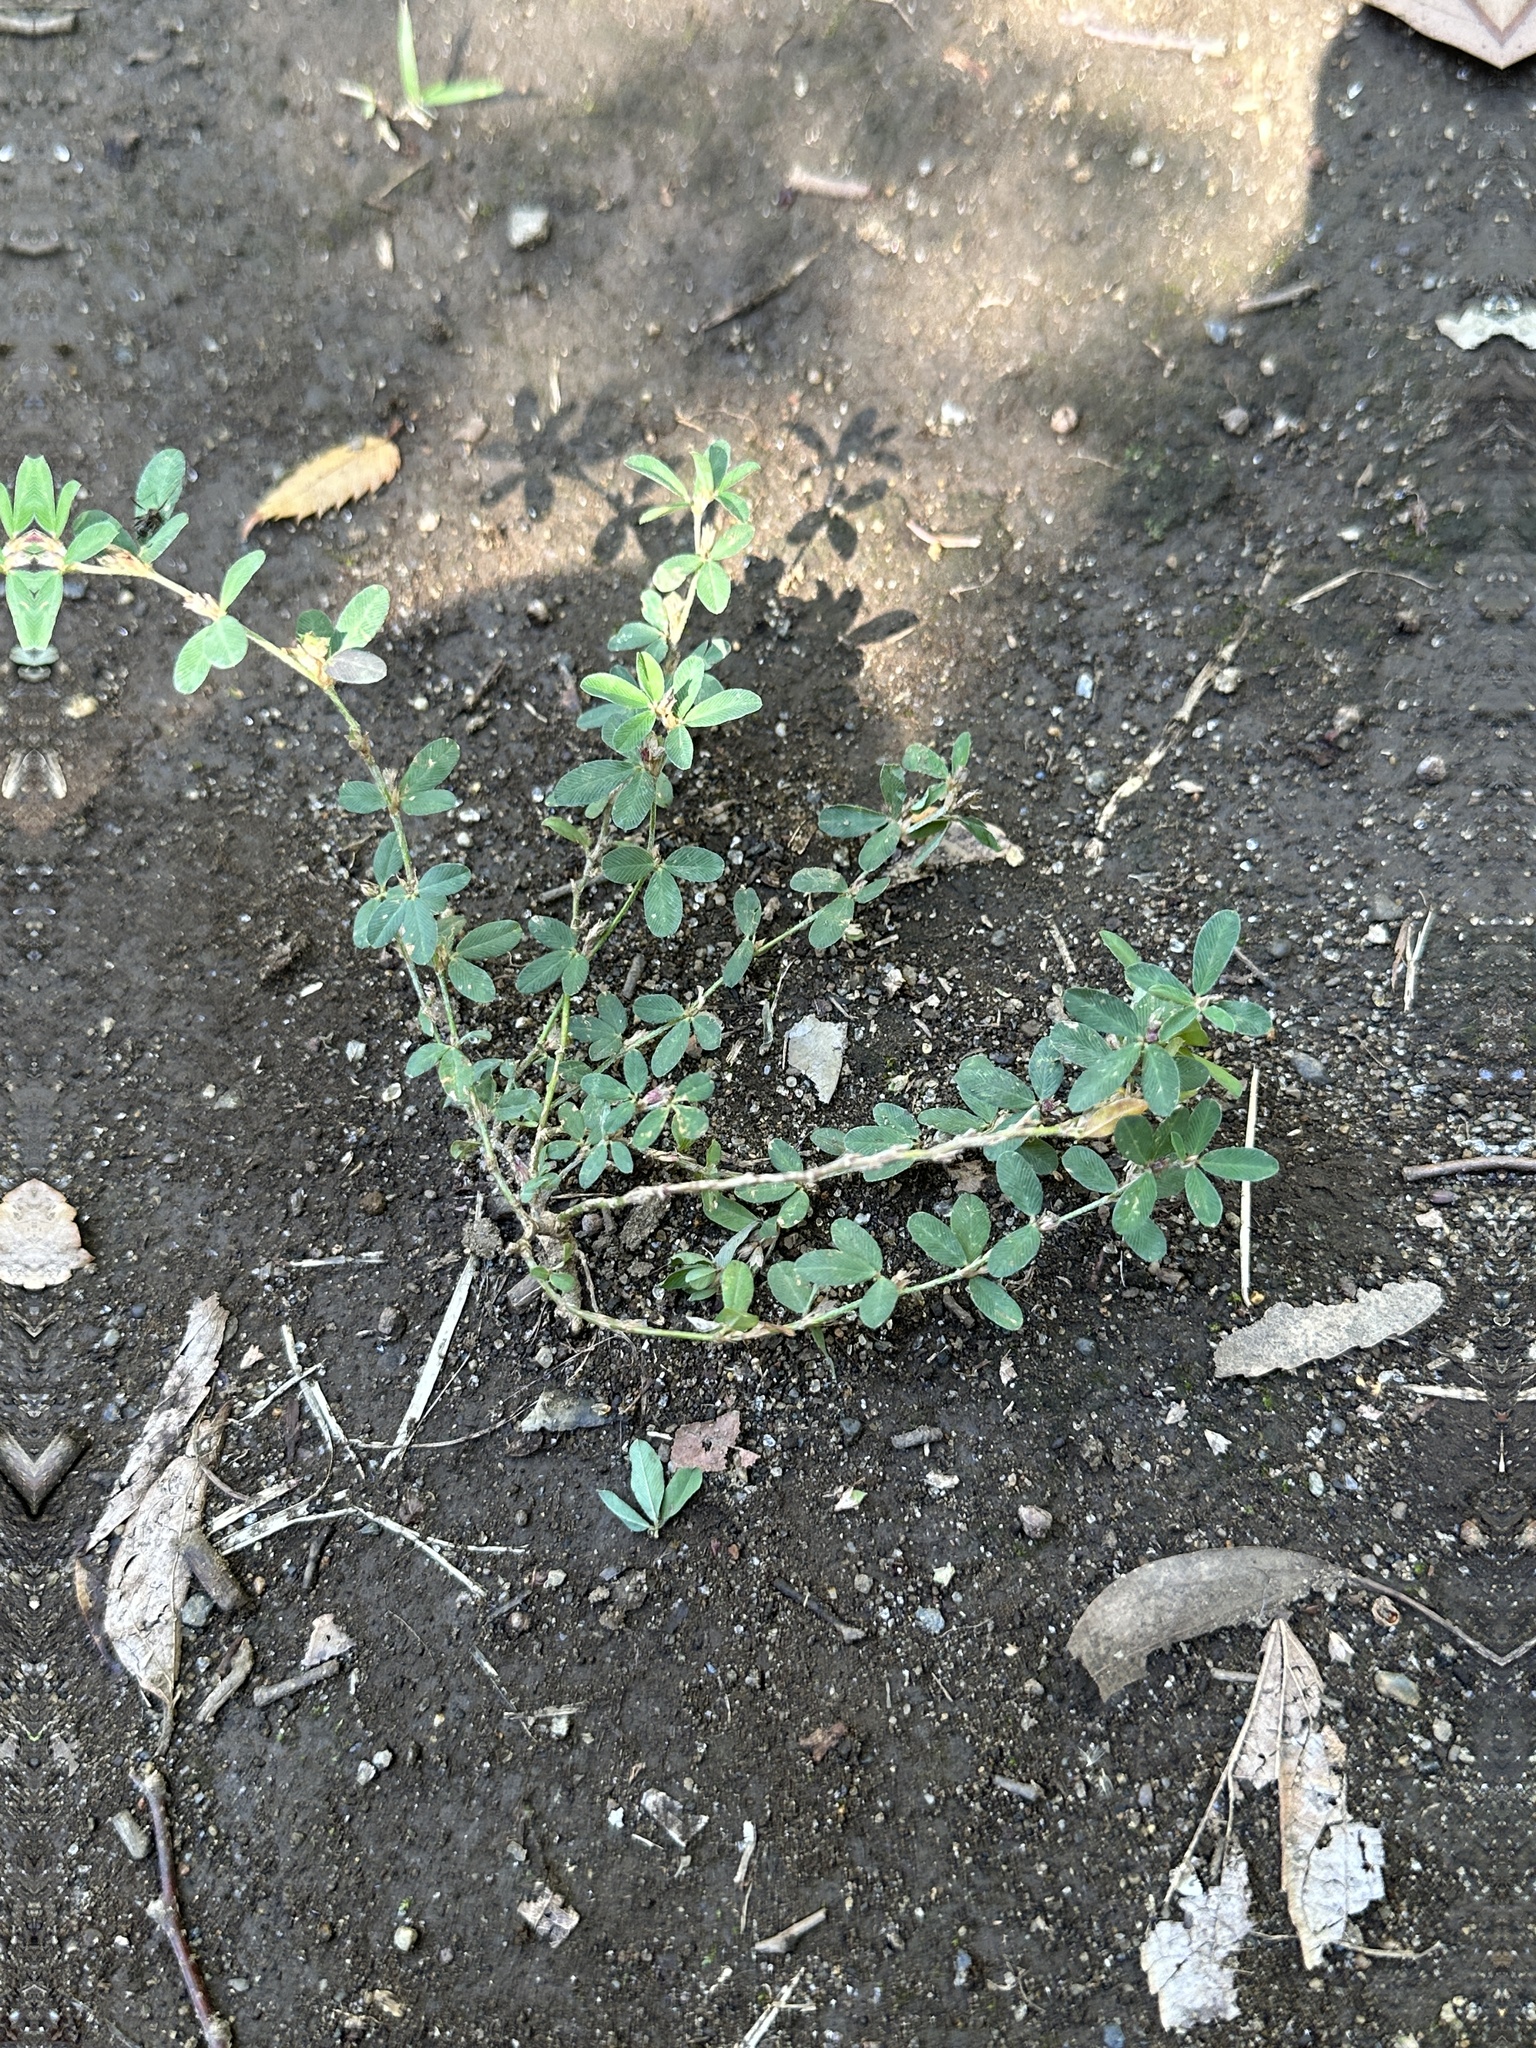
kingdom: Plantae
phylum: Tracheophyta
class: Magnoliopsida
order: Fabales
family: Fabaceae
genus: Kummerowia
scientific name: Kummerowia striata
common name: Japanese clover
